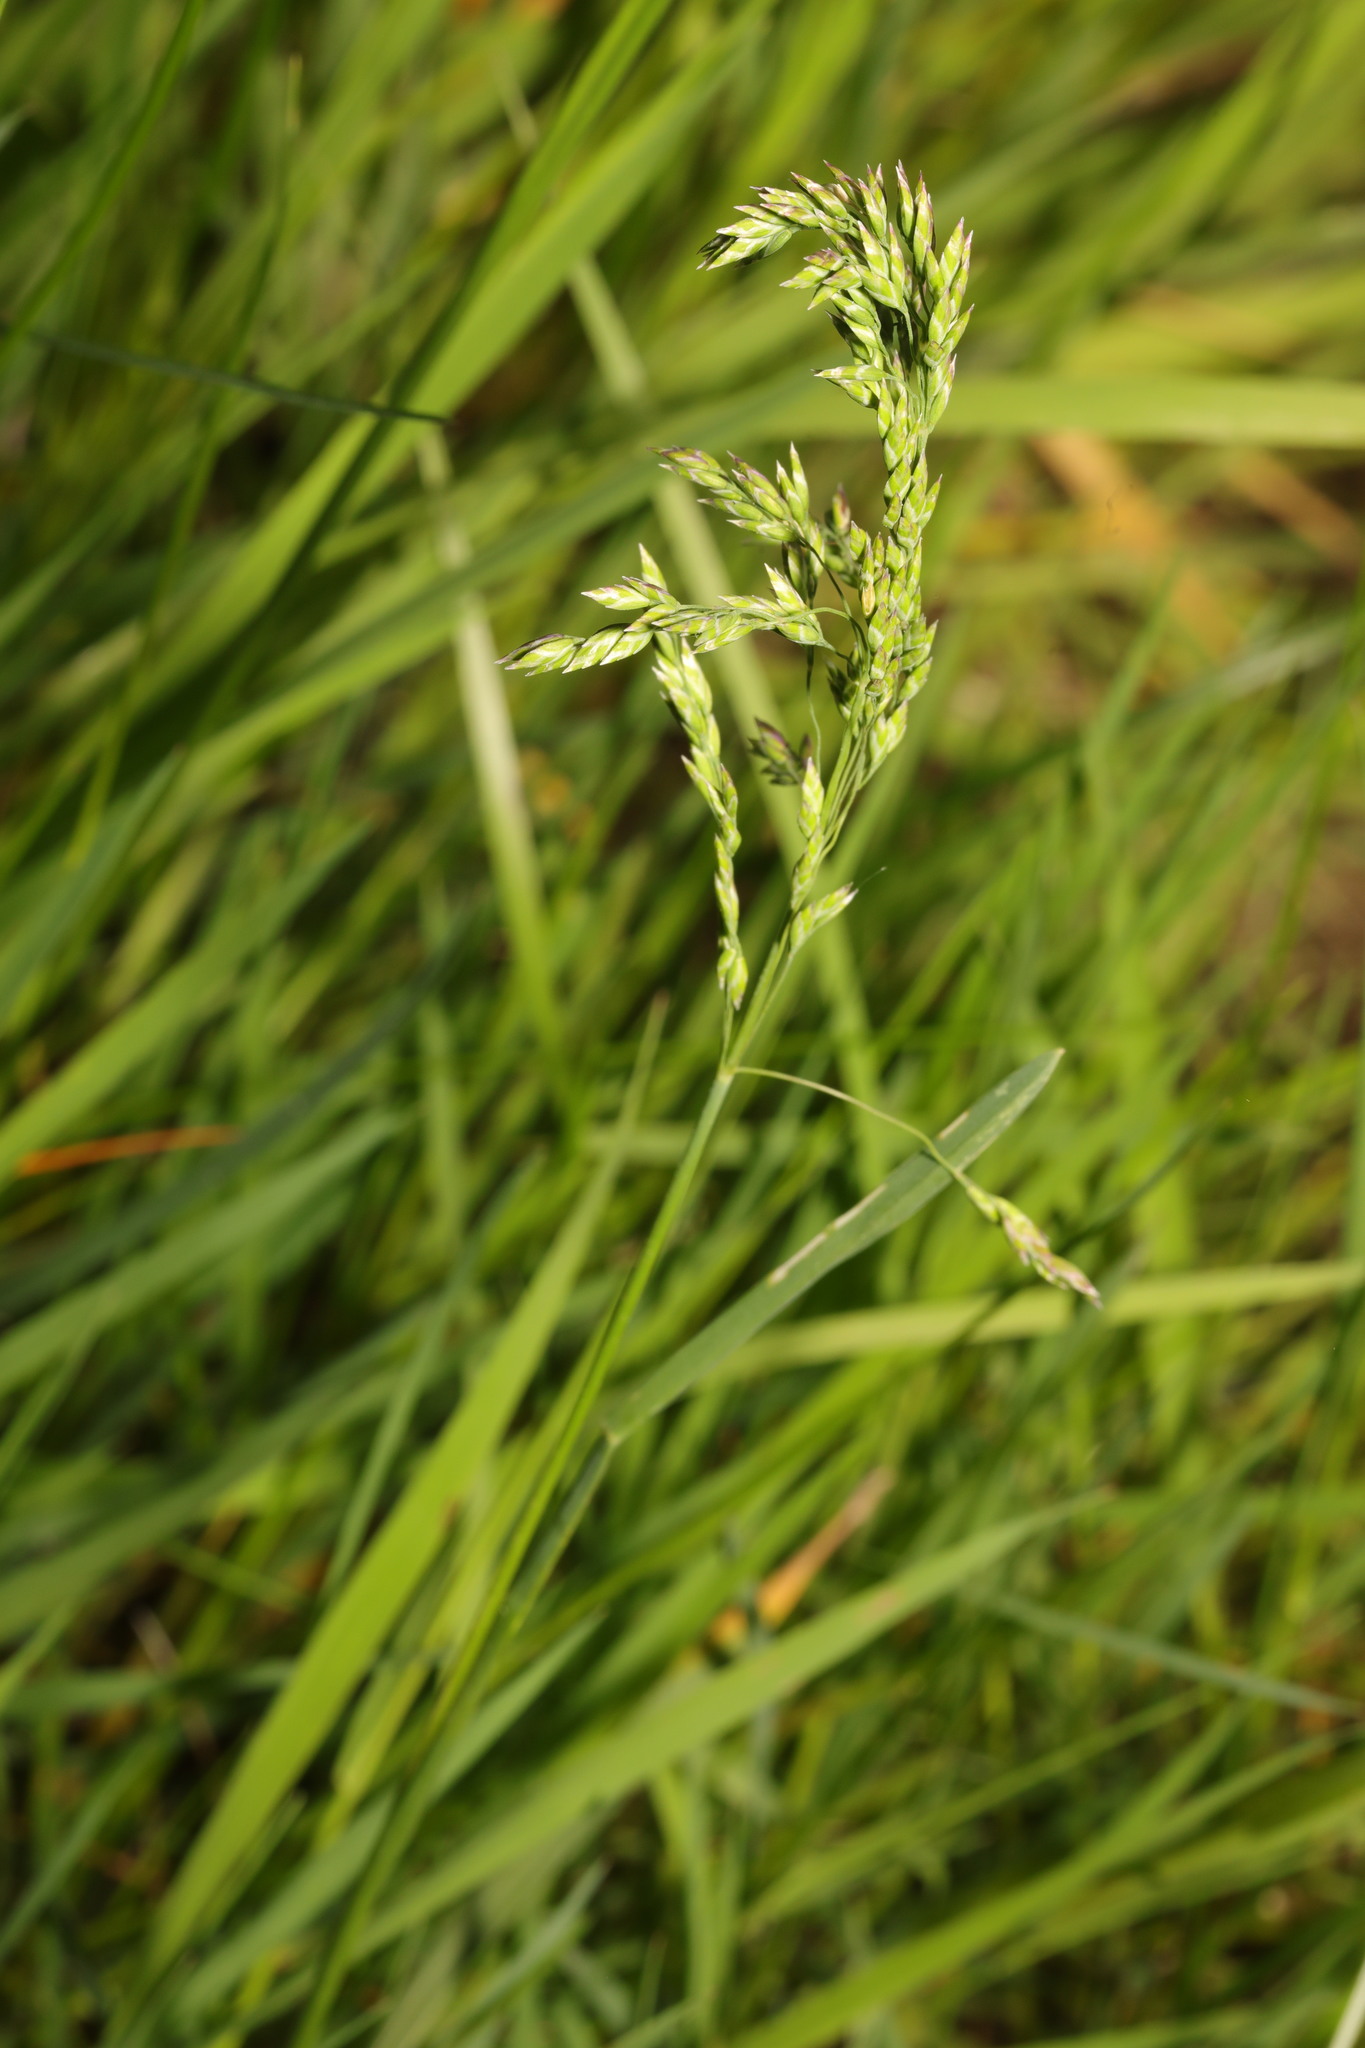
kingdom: Plantae
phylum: Tracheophyta
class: Liliopsida
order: Poales
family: Poaceae
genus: Poa
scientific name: Poa pratensis
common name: Kentucky bluegrass
